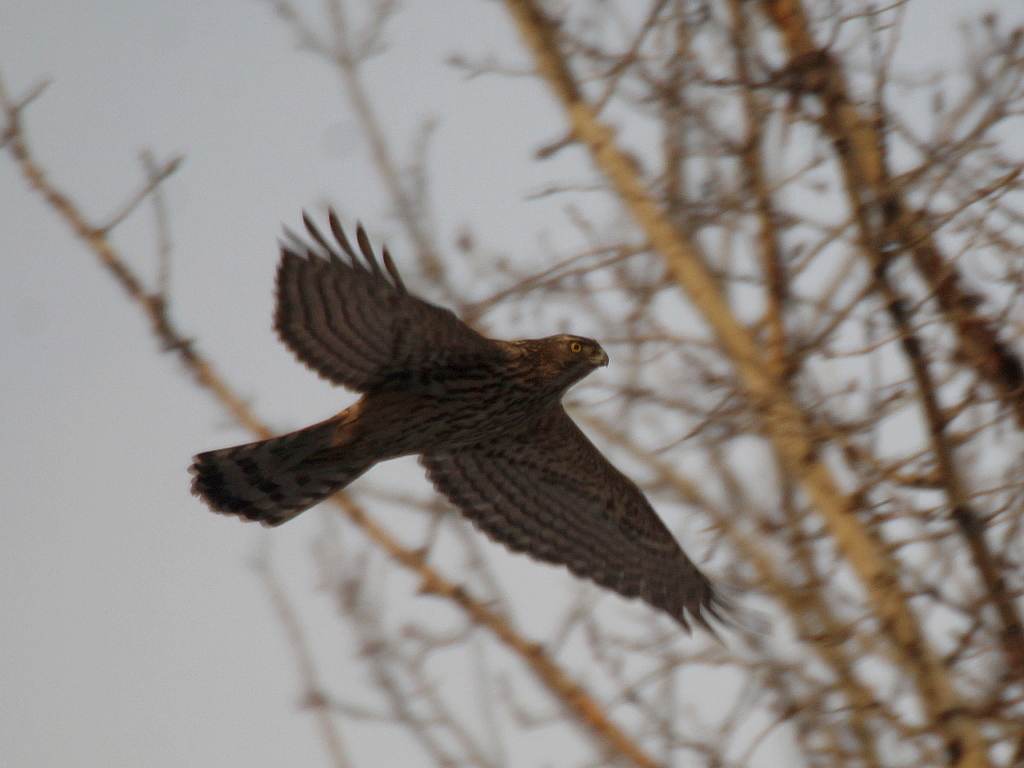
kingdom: Animalia
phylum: Chordata
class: Aves
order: Accipitriformes
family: Accipitridae
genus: Accipiter
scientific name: Accipiter gentilis
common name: Northern goshawk
